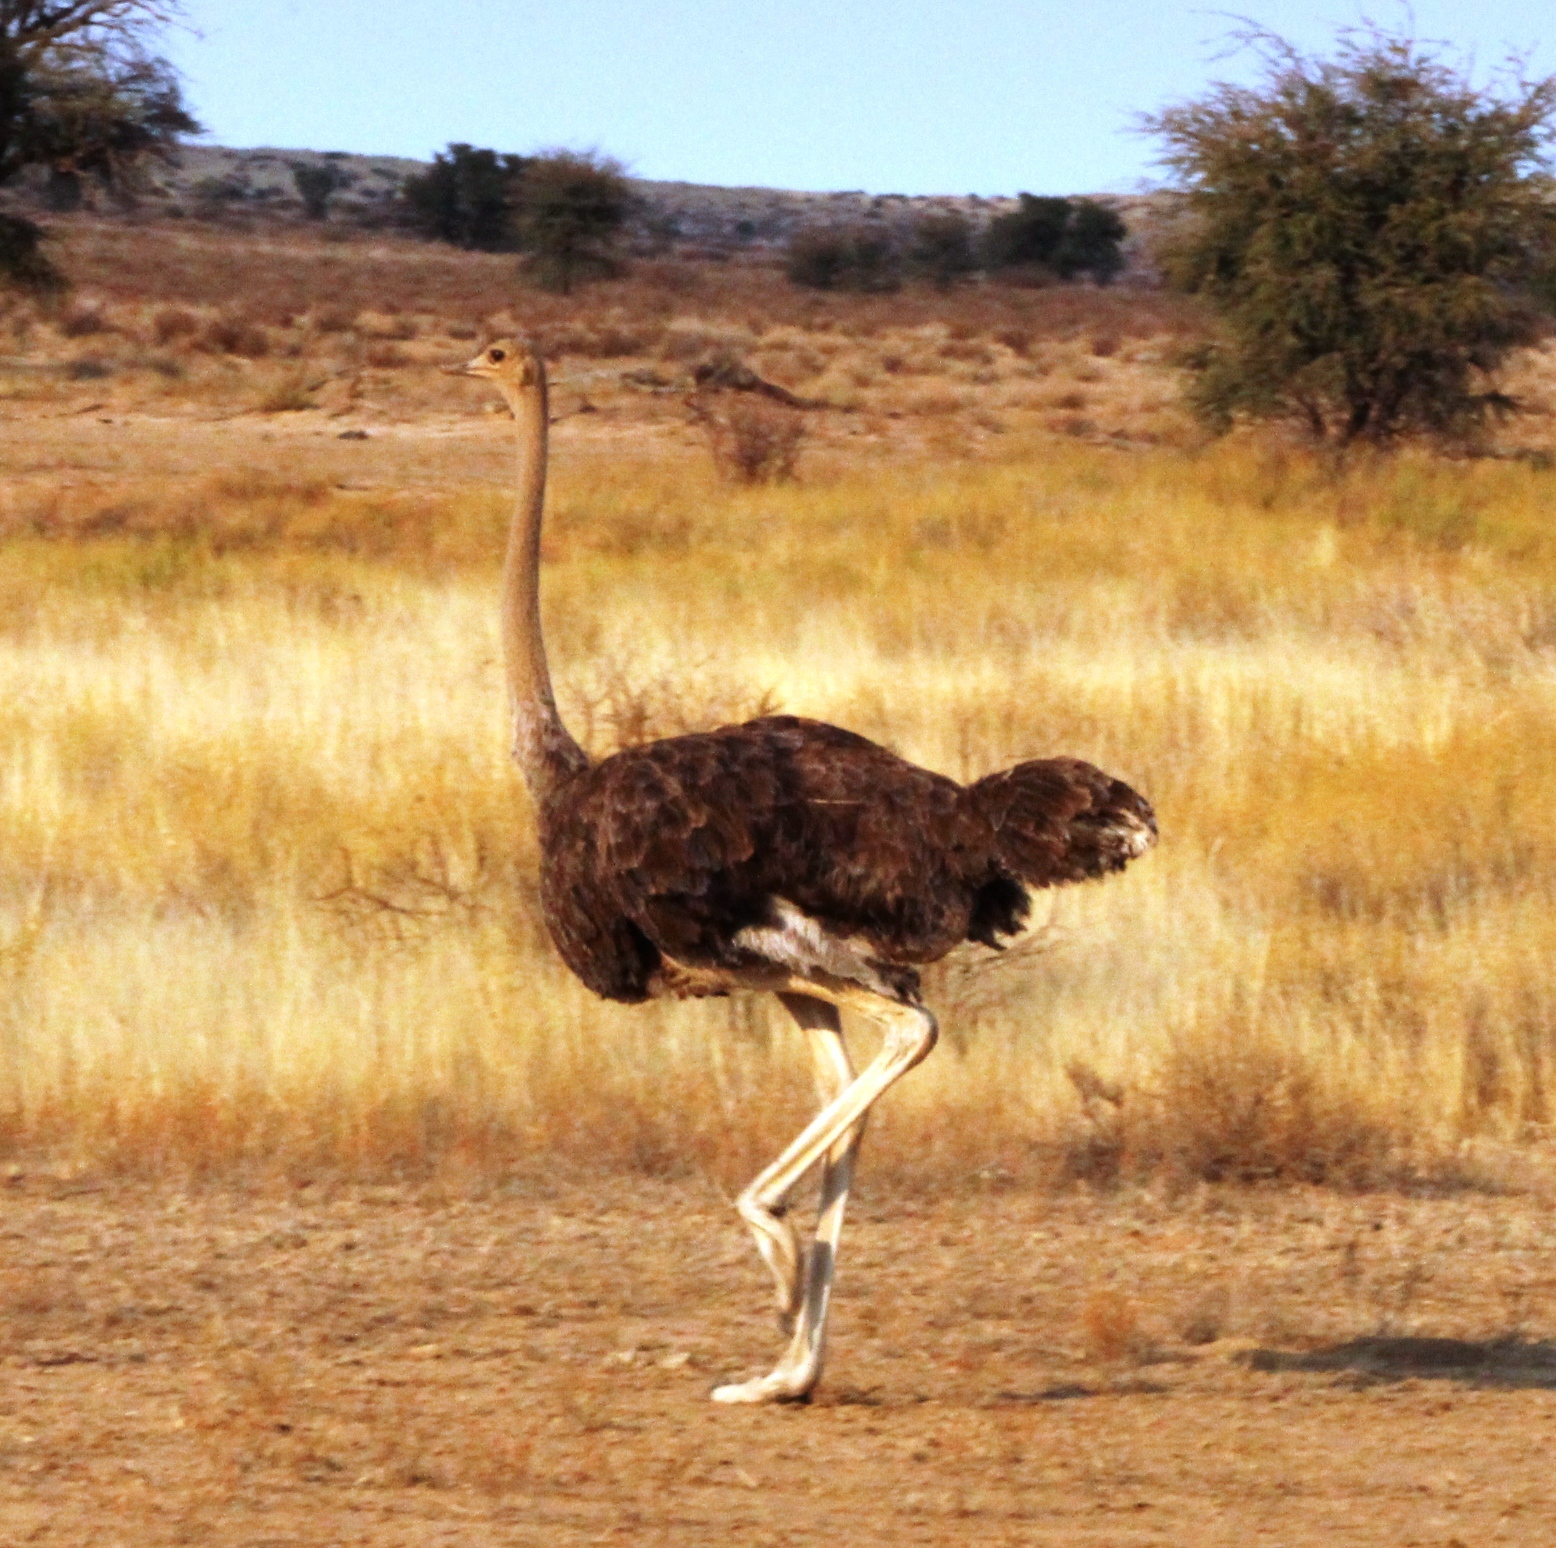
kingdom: Animalia
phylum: Chordata
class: Aves
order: Struthioniformes
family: Struthionidae
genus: Struthio
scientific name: Struthio camelus
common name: Common ostrich
